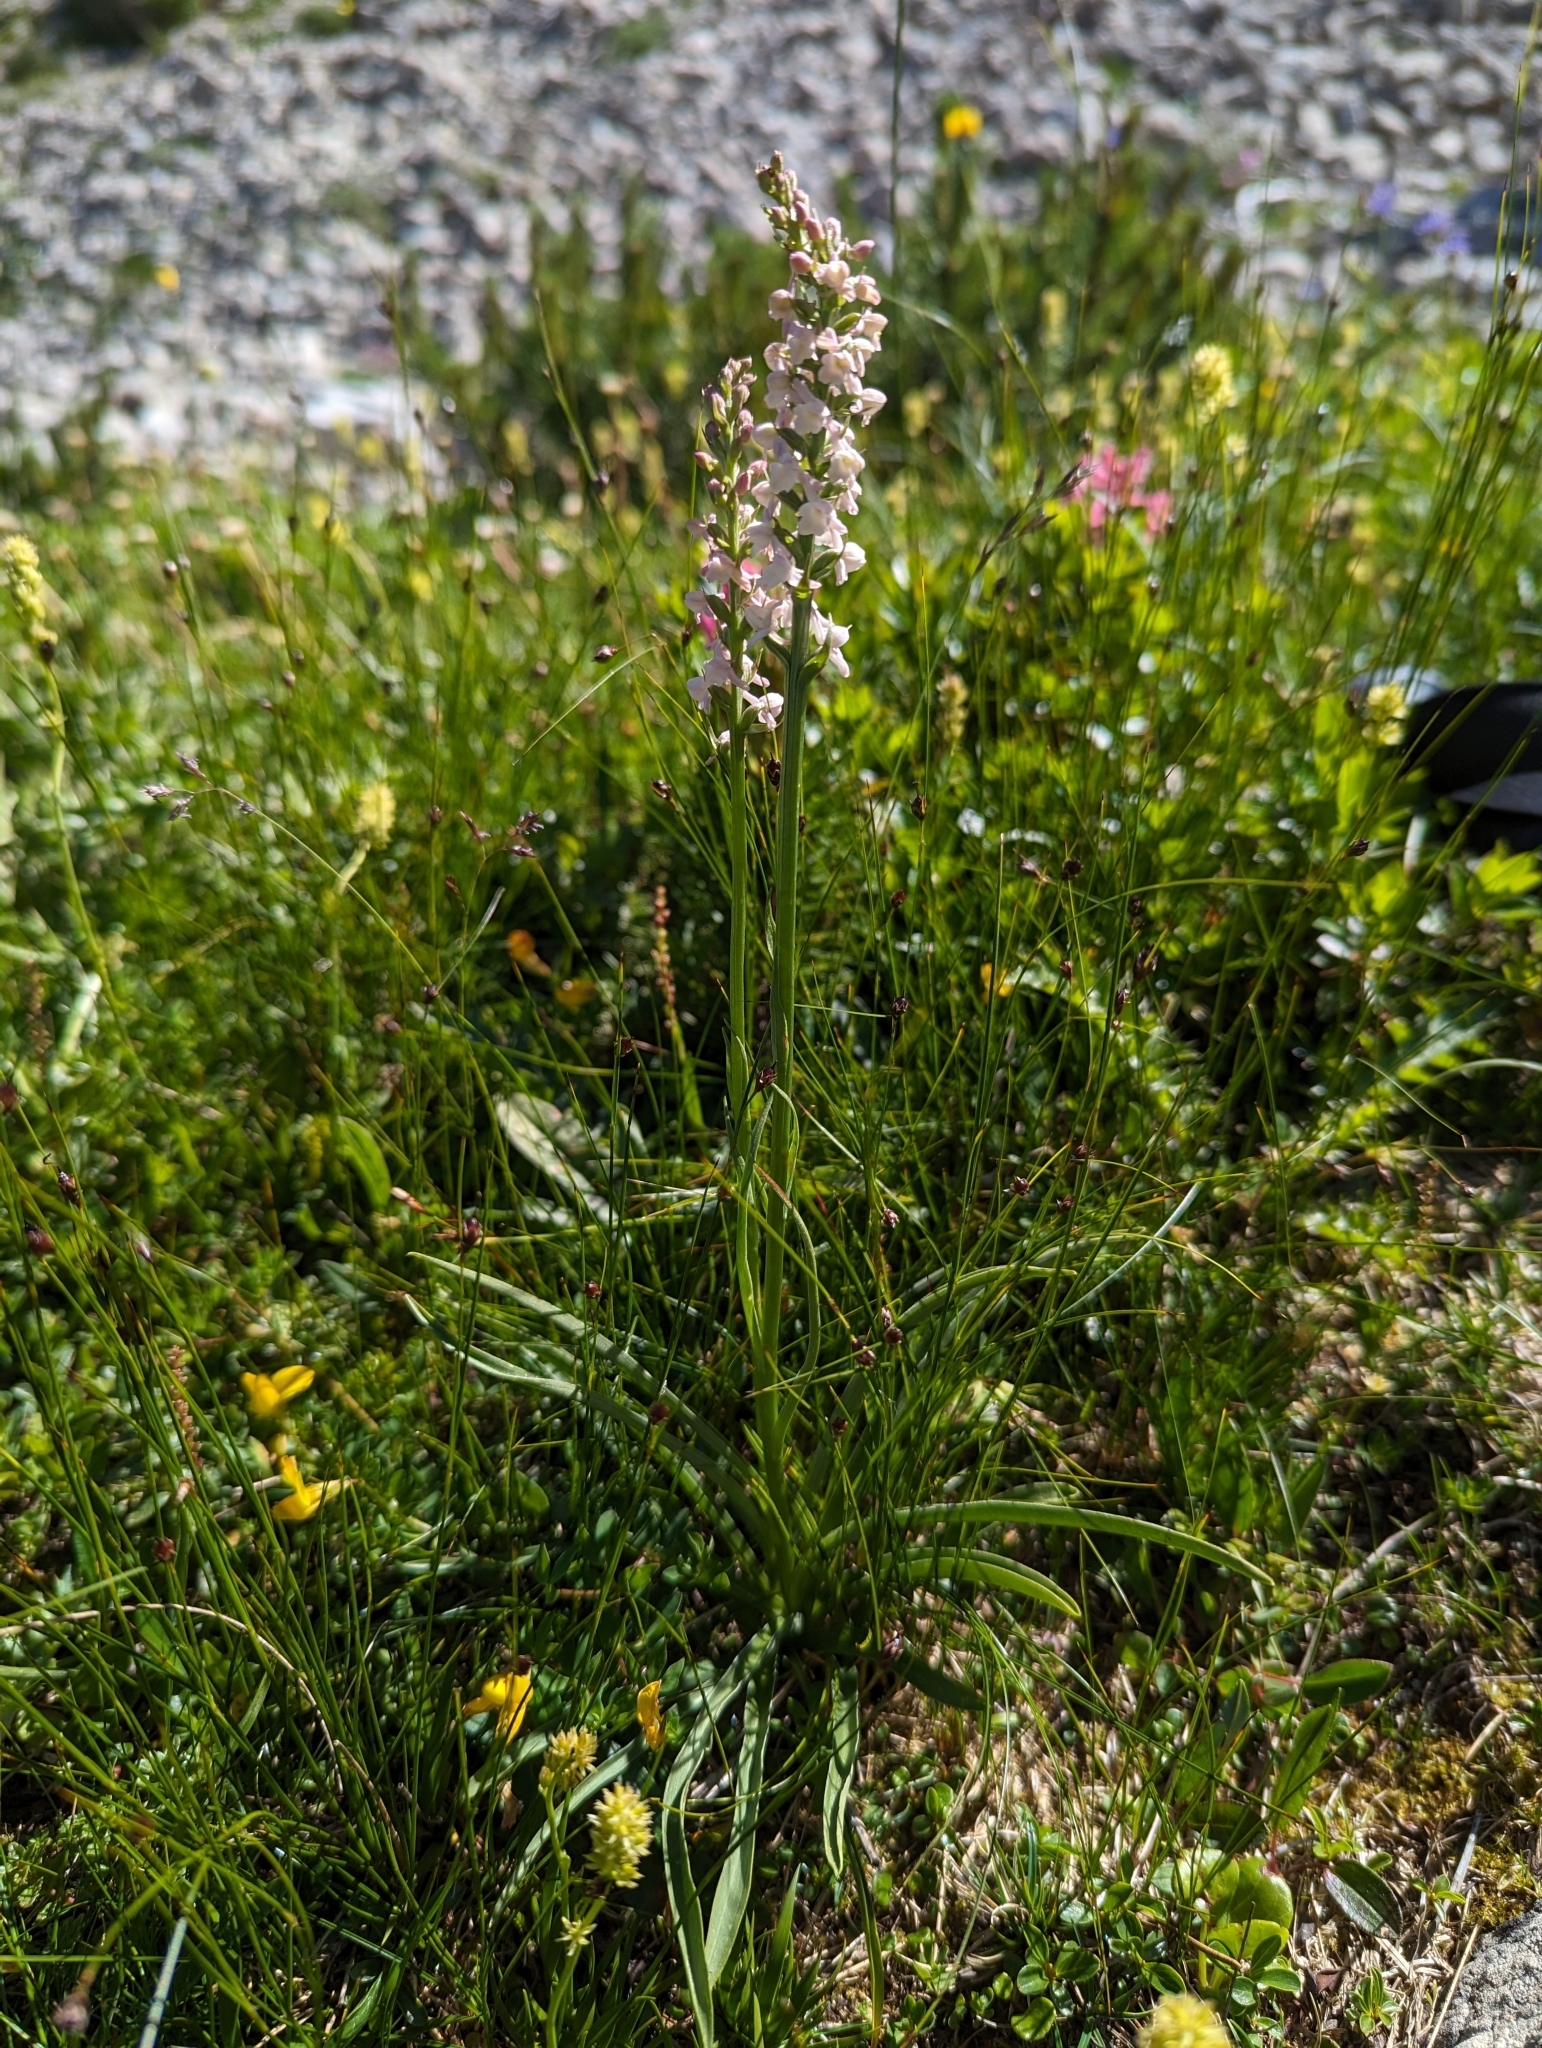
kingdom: Plantae
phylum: Tracheophyta
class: Liliopsida
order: Asparagales
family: Orchidaceae
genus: Gymnadenia
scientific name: Gymnadenia odoratissima
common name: Scented gymnadenia
